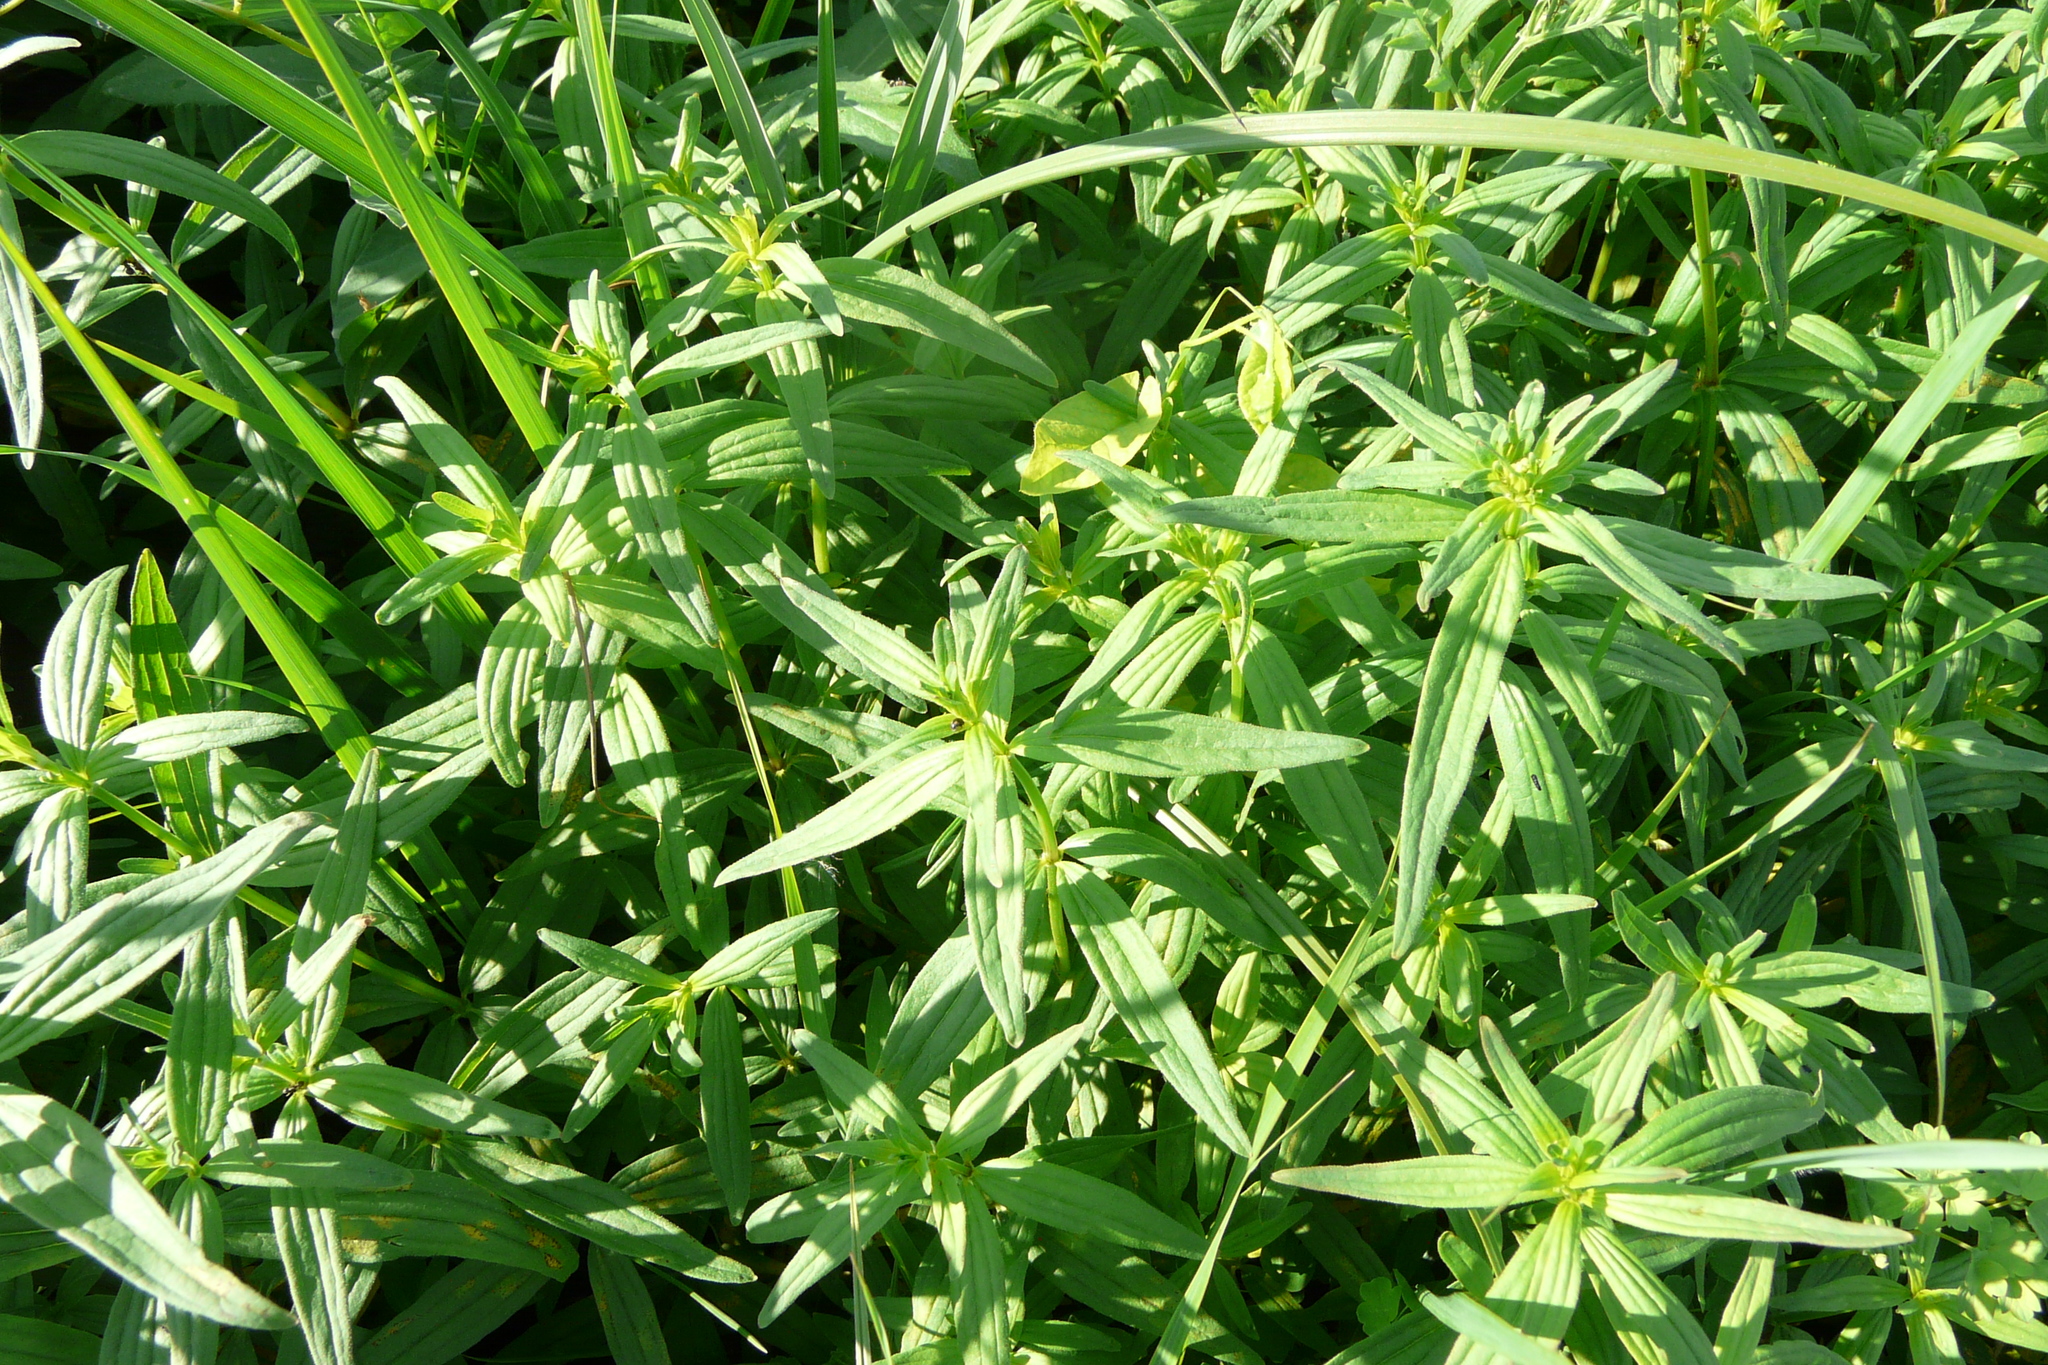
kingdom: Plantae
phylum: Tracheophyta
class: Magnoliopsida
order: Gentianales
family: Rubiaceae
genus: Galium
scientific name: Galium rubioides
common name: European bedstraw
